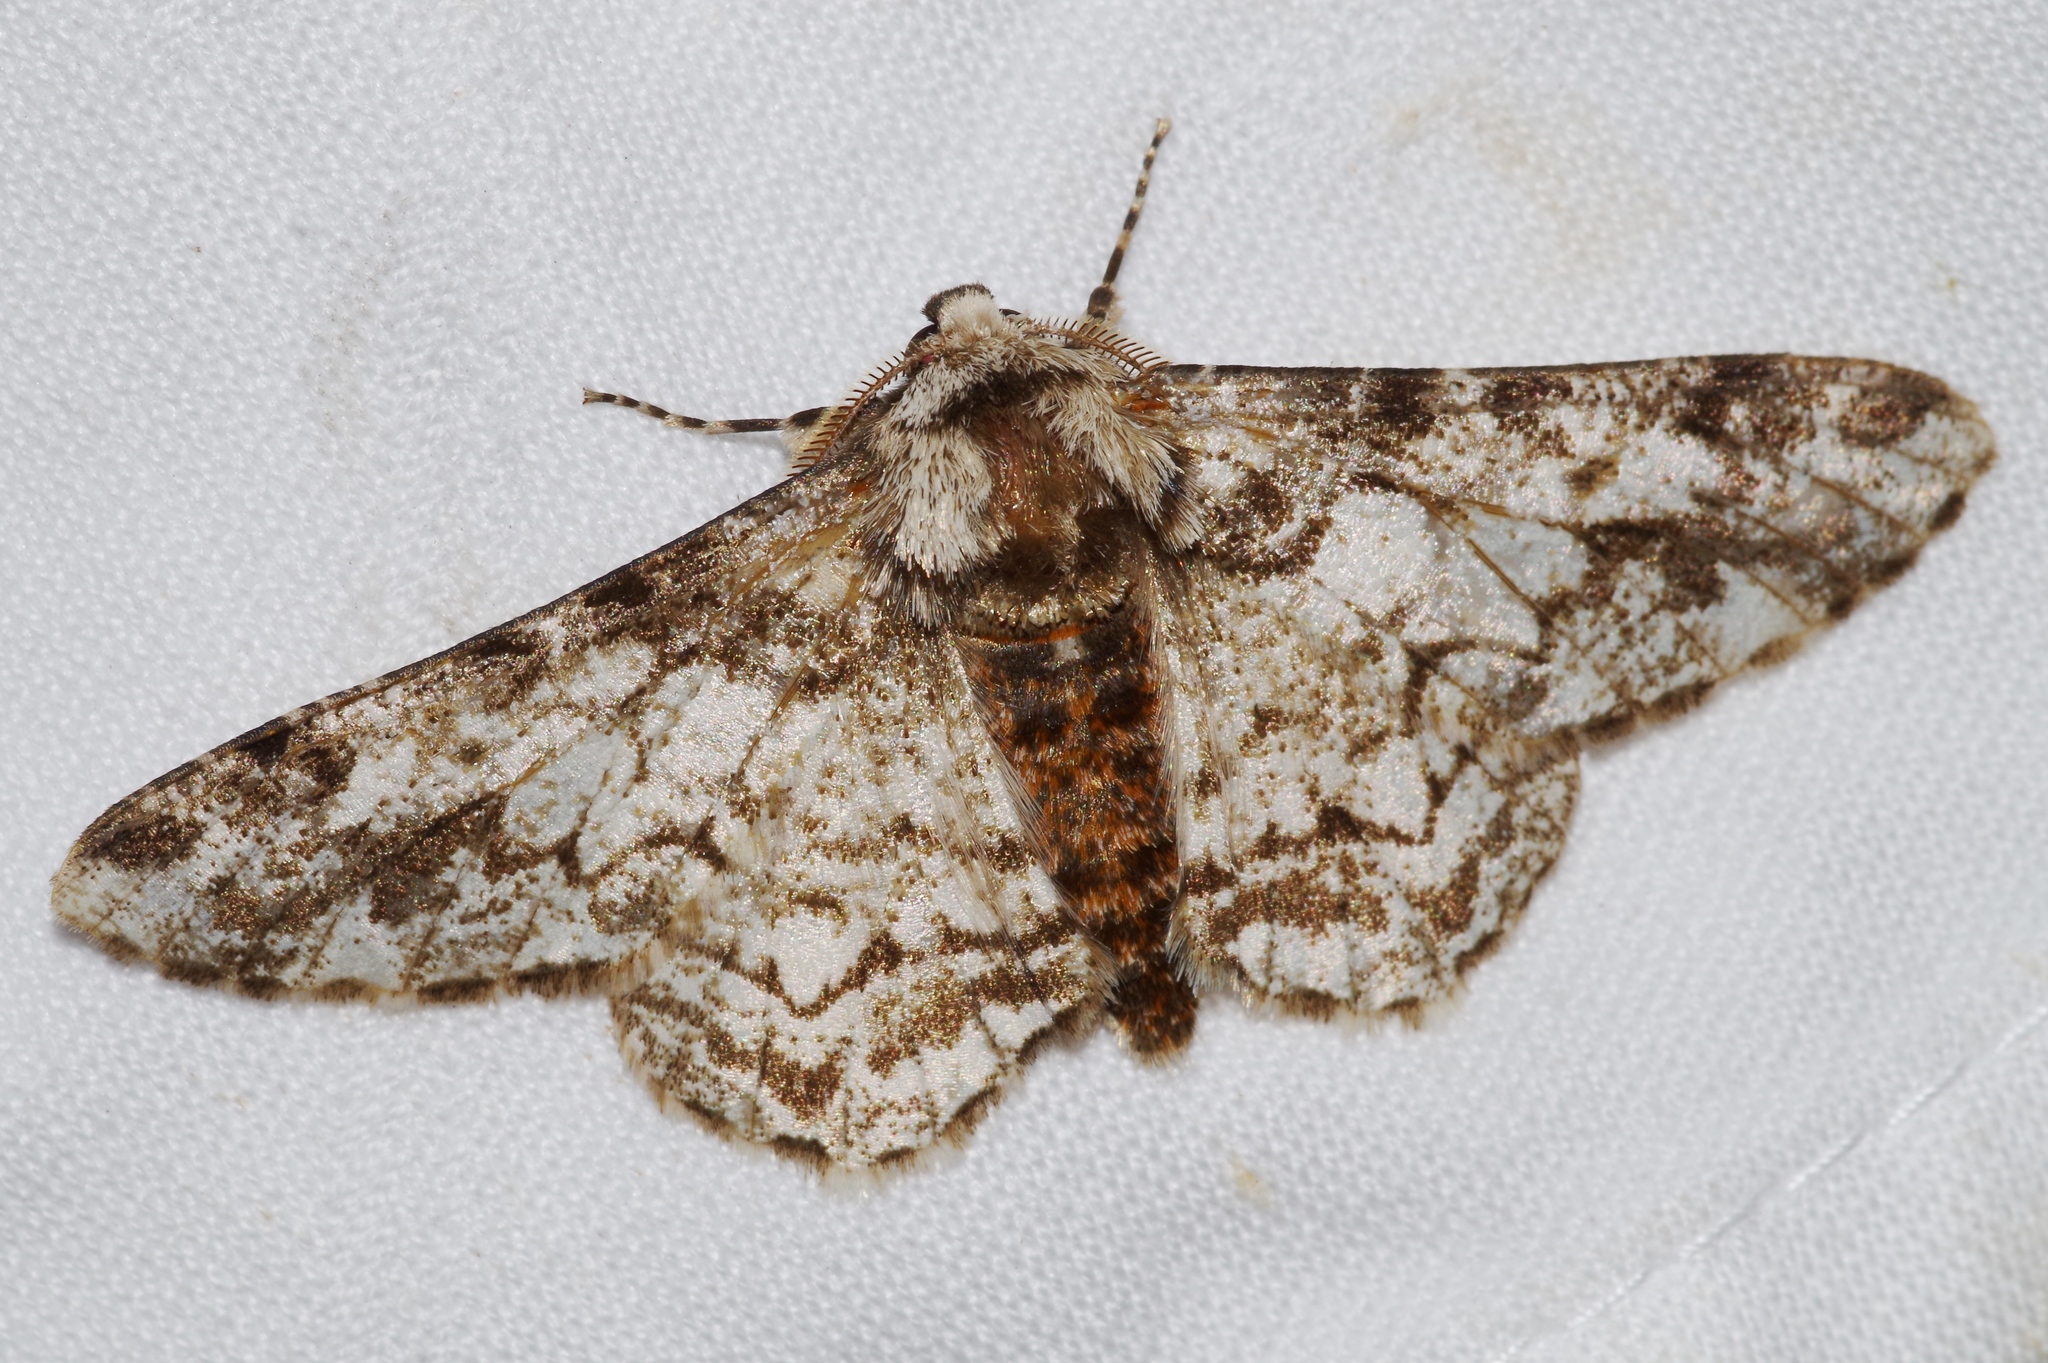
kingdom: Animalia
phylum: Arthropoda
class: Insecta
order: Lepidoptera
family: Geometridae
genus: Biston
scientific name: Biston marginata
